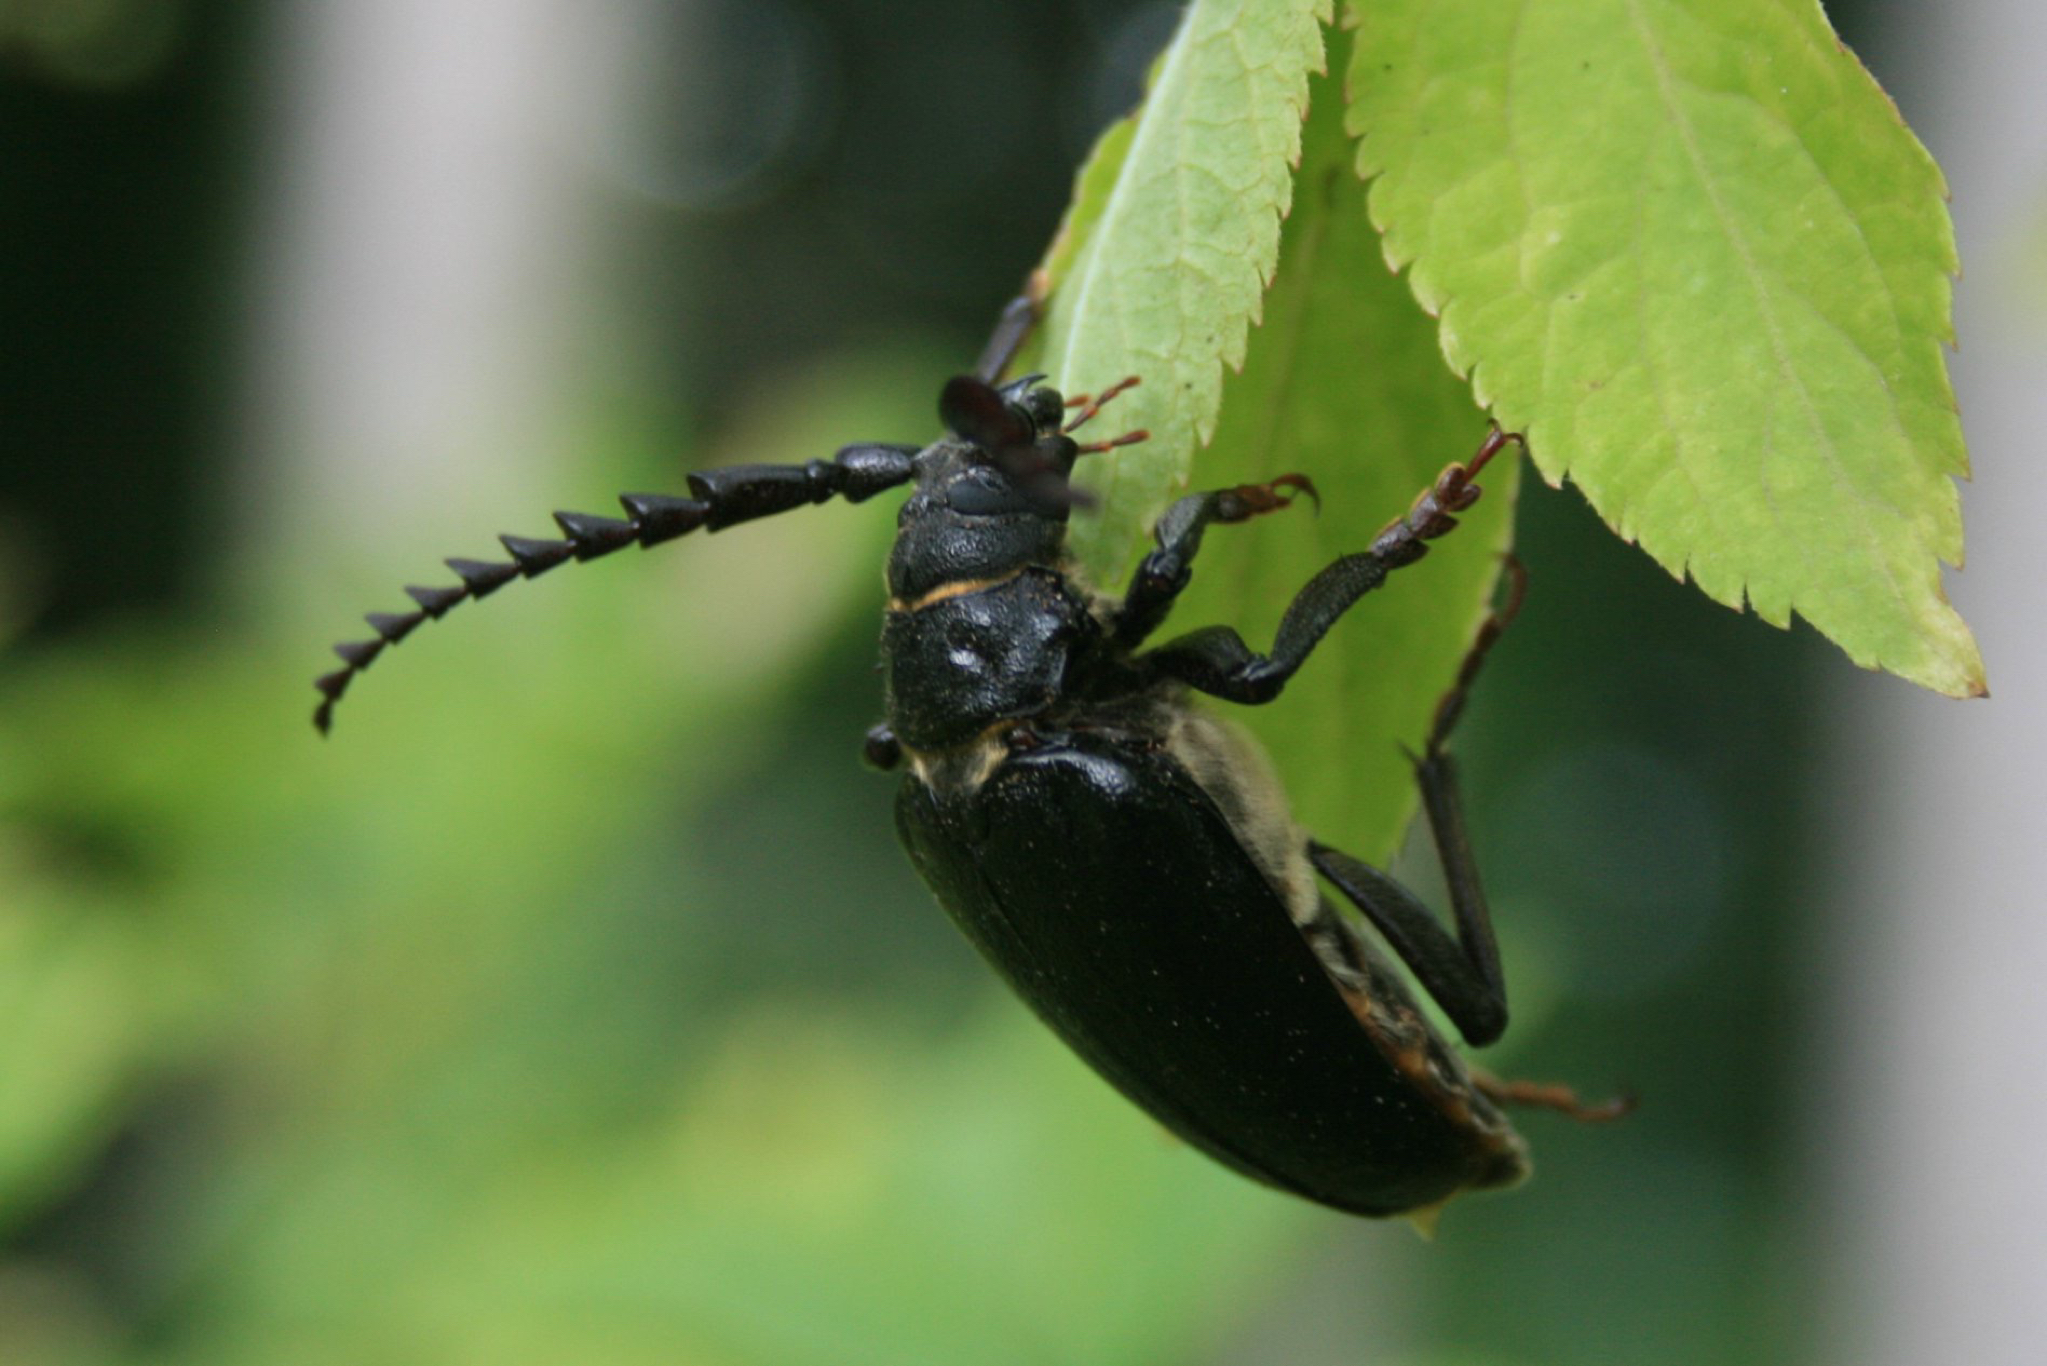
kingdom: Animalia
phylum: Arthropoda
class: Insecta
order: Coleoptera
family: Cerambycidae
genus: Prionus
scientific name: Prionus coriarius
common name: Tanner beetle
